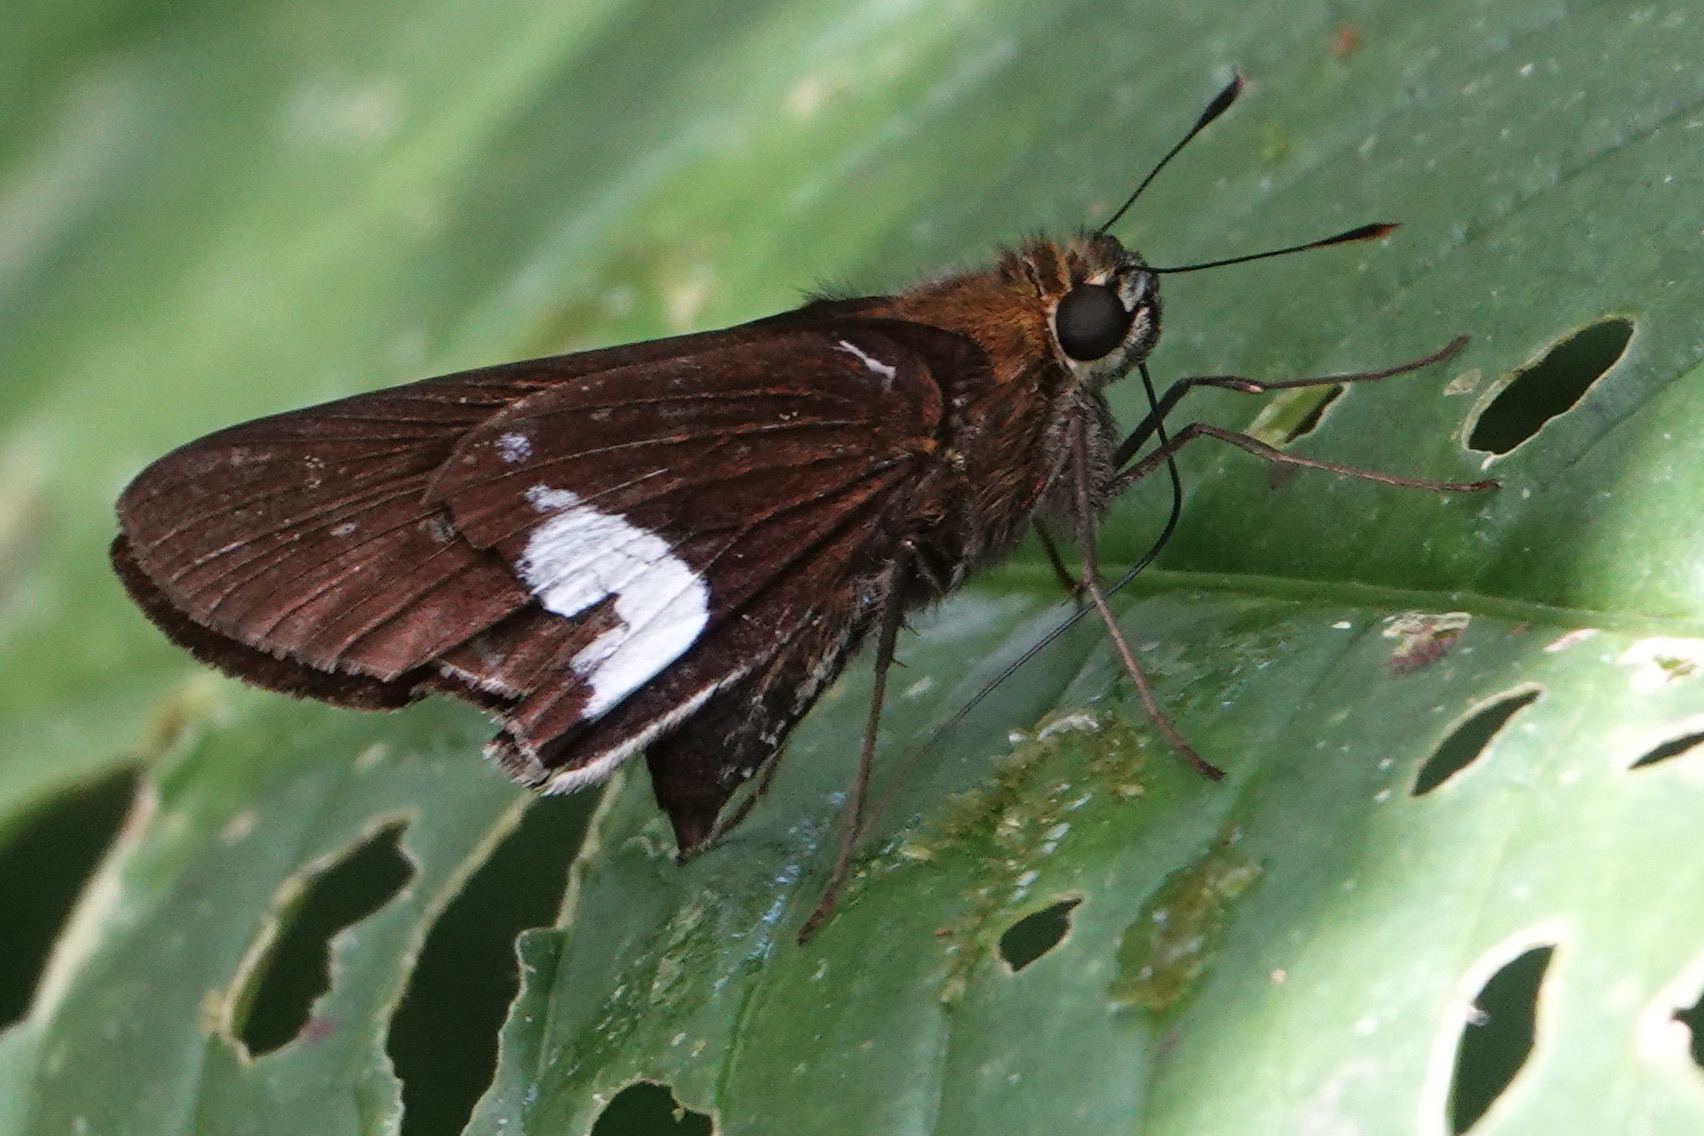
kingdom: Animalia
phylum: Arthropoda
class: Insecta
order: Lepidoptera
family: Hesperiidae
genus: Panoquina
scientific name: Panoquina
